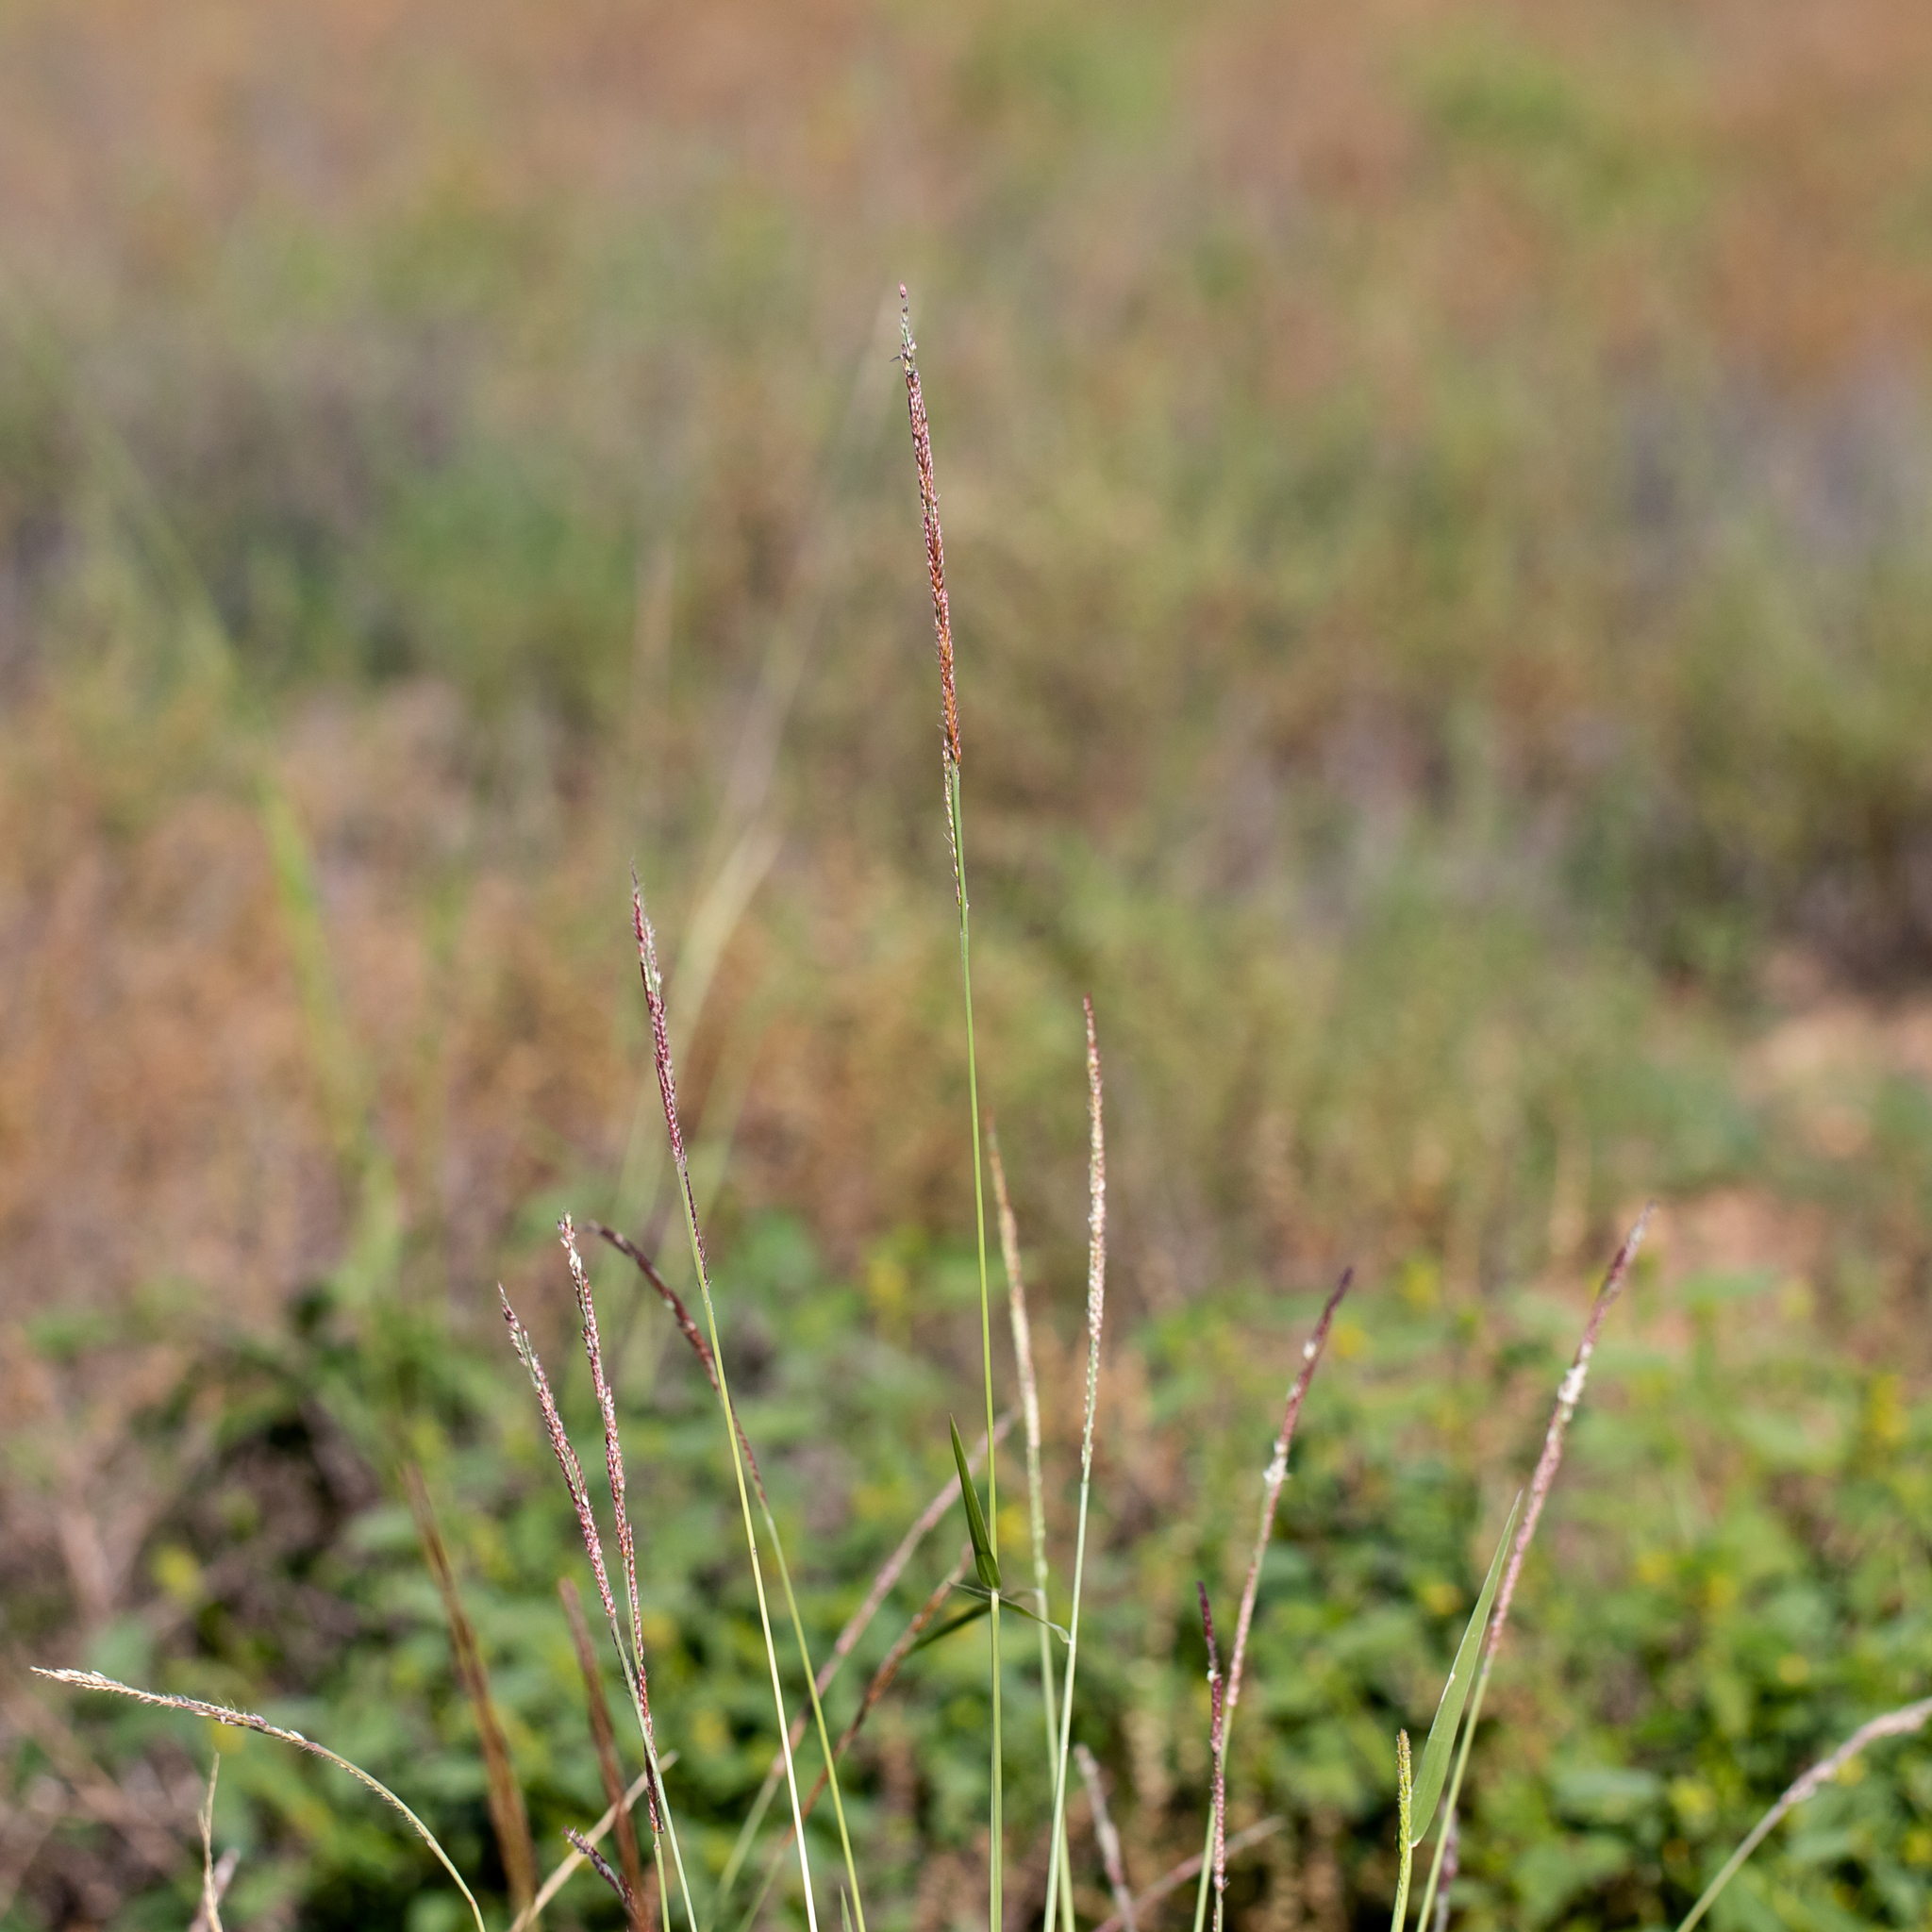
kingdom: Plantae
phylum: Tracheophyta
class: Liliopsida
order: Poales
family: Poaceae
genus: Eriochloa
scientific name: Eriochloa pseudoacrotricha
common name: Perennial cup-grass
